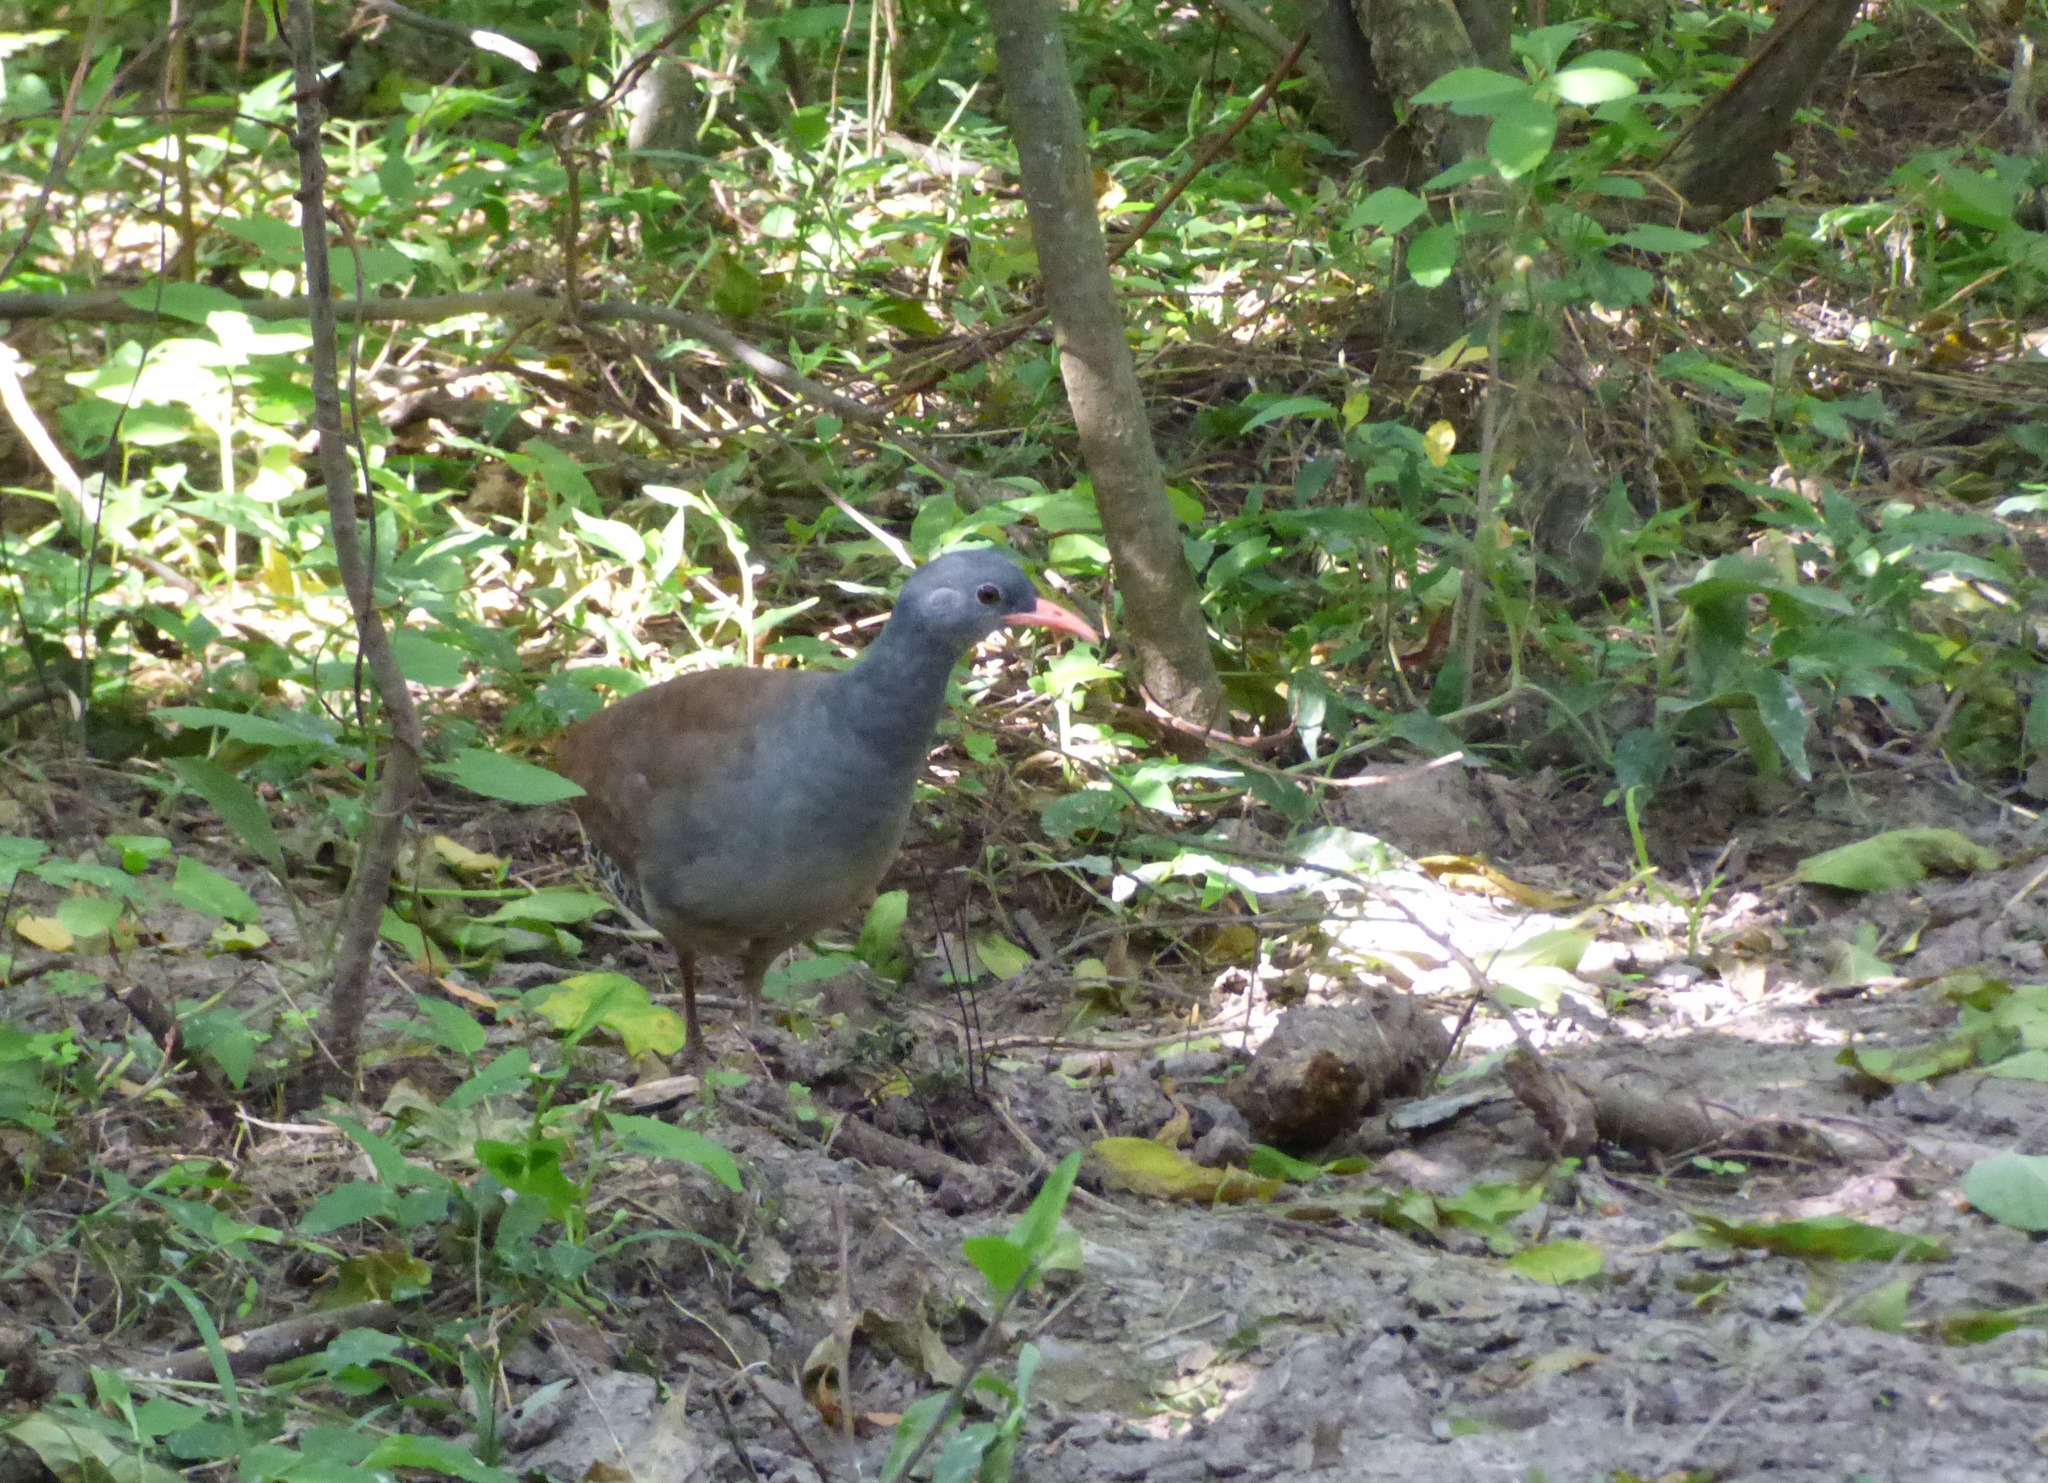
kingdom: Animalia
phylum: Chordata
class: Aves
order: Tinamiformes
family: Tinamidae
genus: Crypturellus
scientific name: Crypturellus tataupa
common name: Tataupa tinamou
